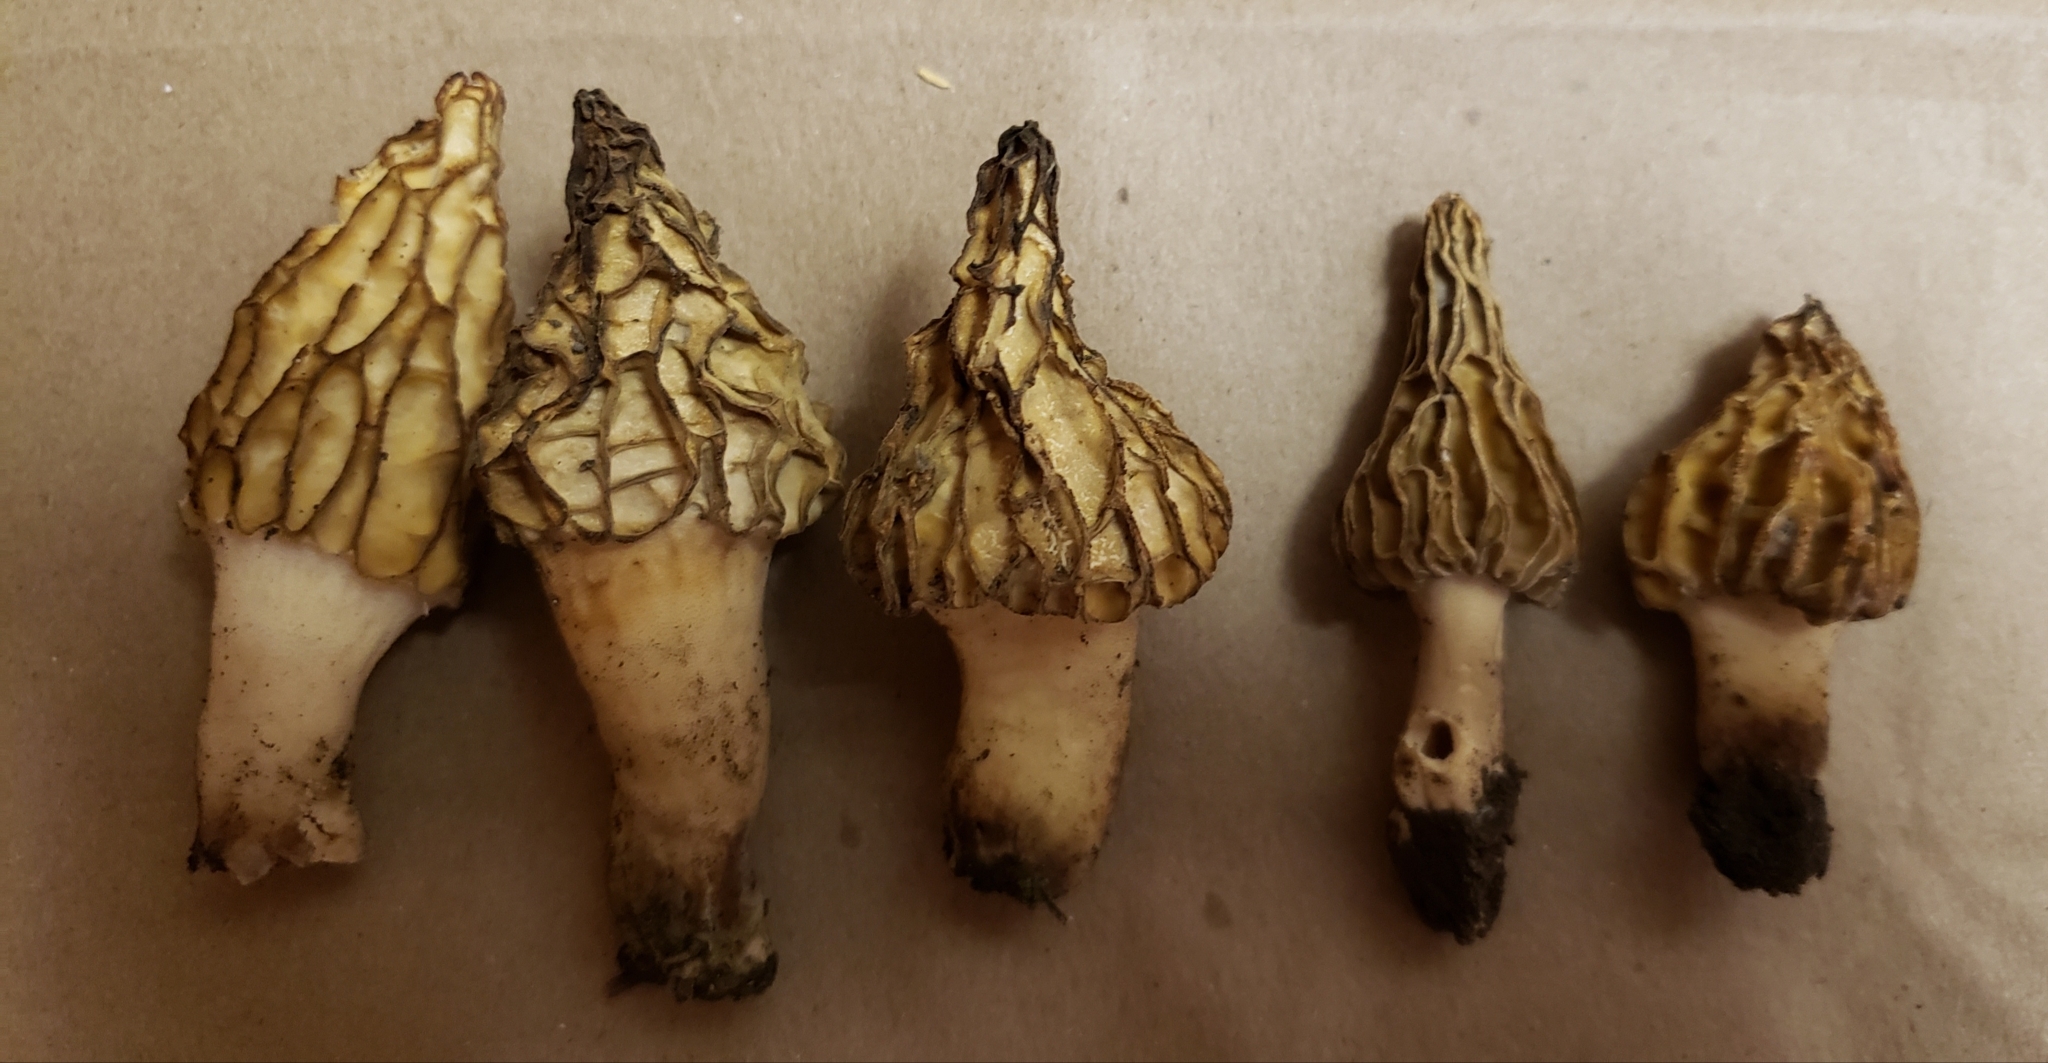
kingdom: Fungi
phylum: Ascomycota
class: Pezizomycetes
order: Pezizales
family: Morchellaceae
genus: Morchella
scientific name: Morchella rufobrunnea
